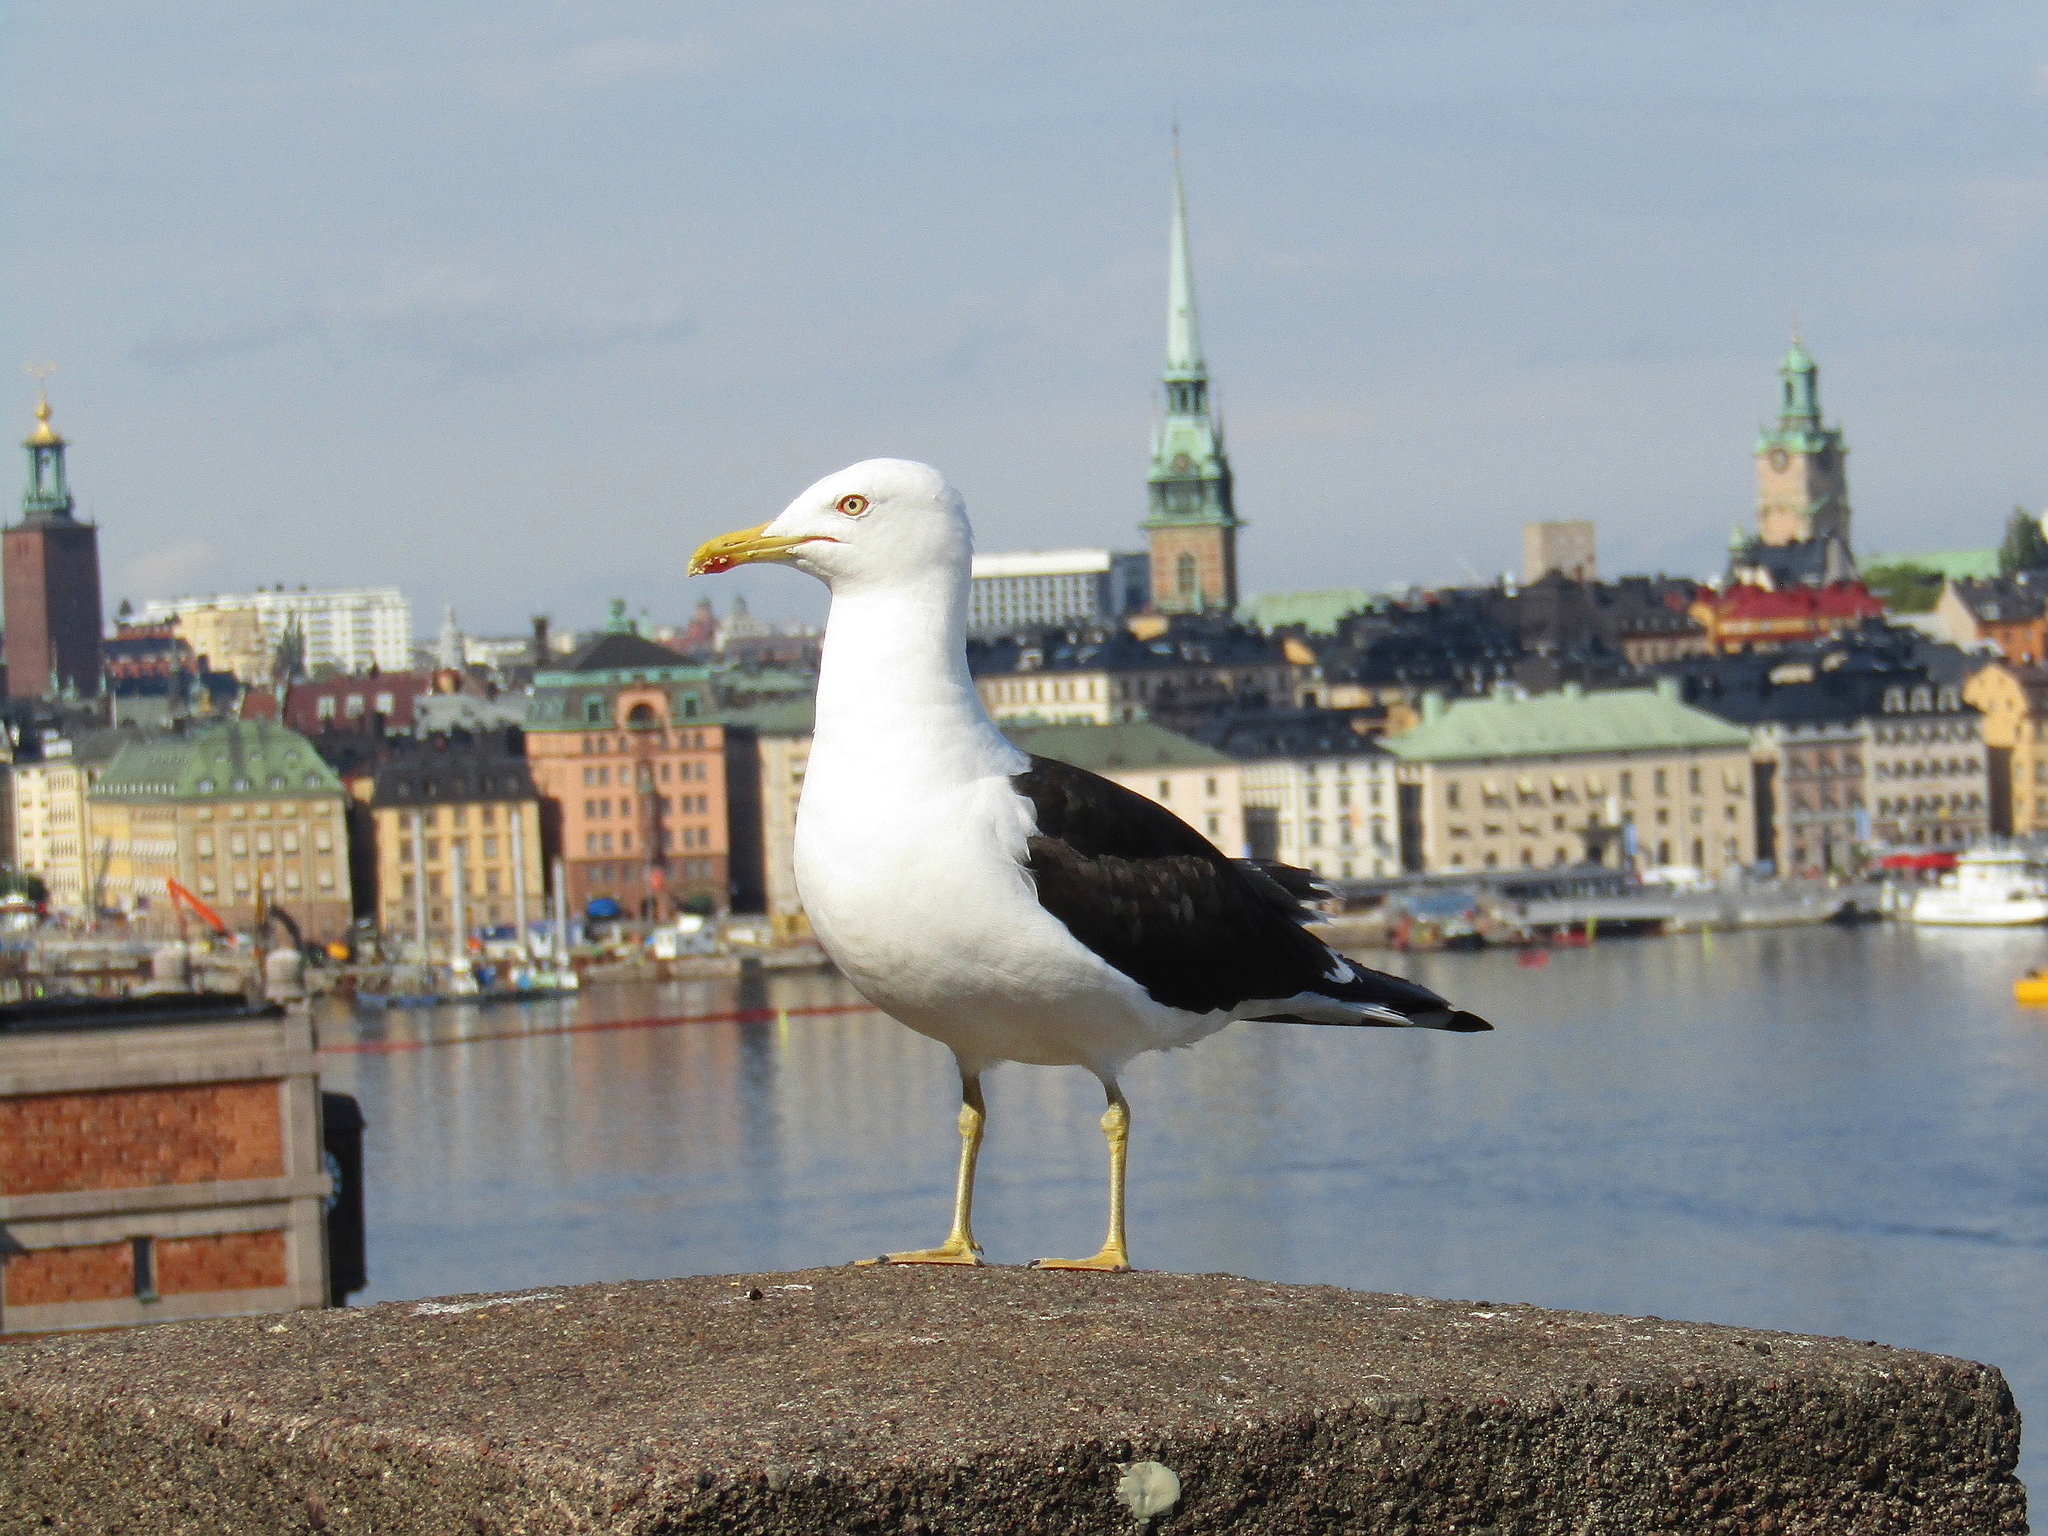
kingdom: Animalia
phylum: Chordata
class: Aves
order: Charadriiformes
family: Laridae
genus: Larus
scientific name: Larus fuscus
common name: Lesser black-backed gull
